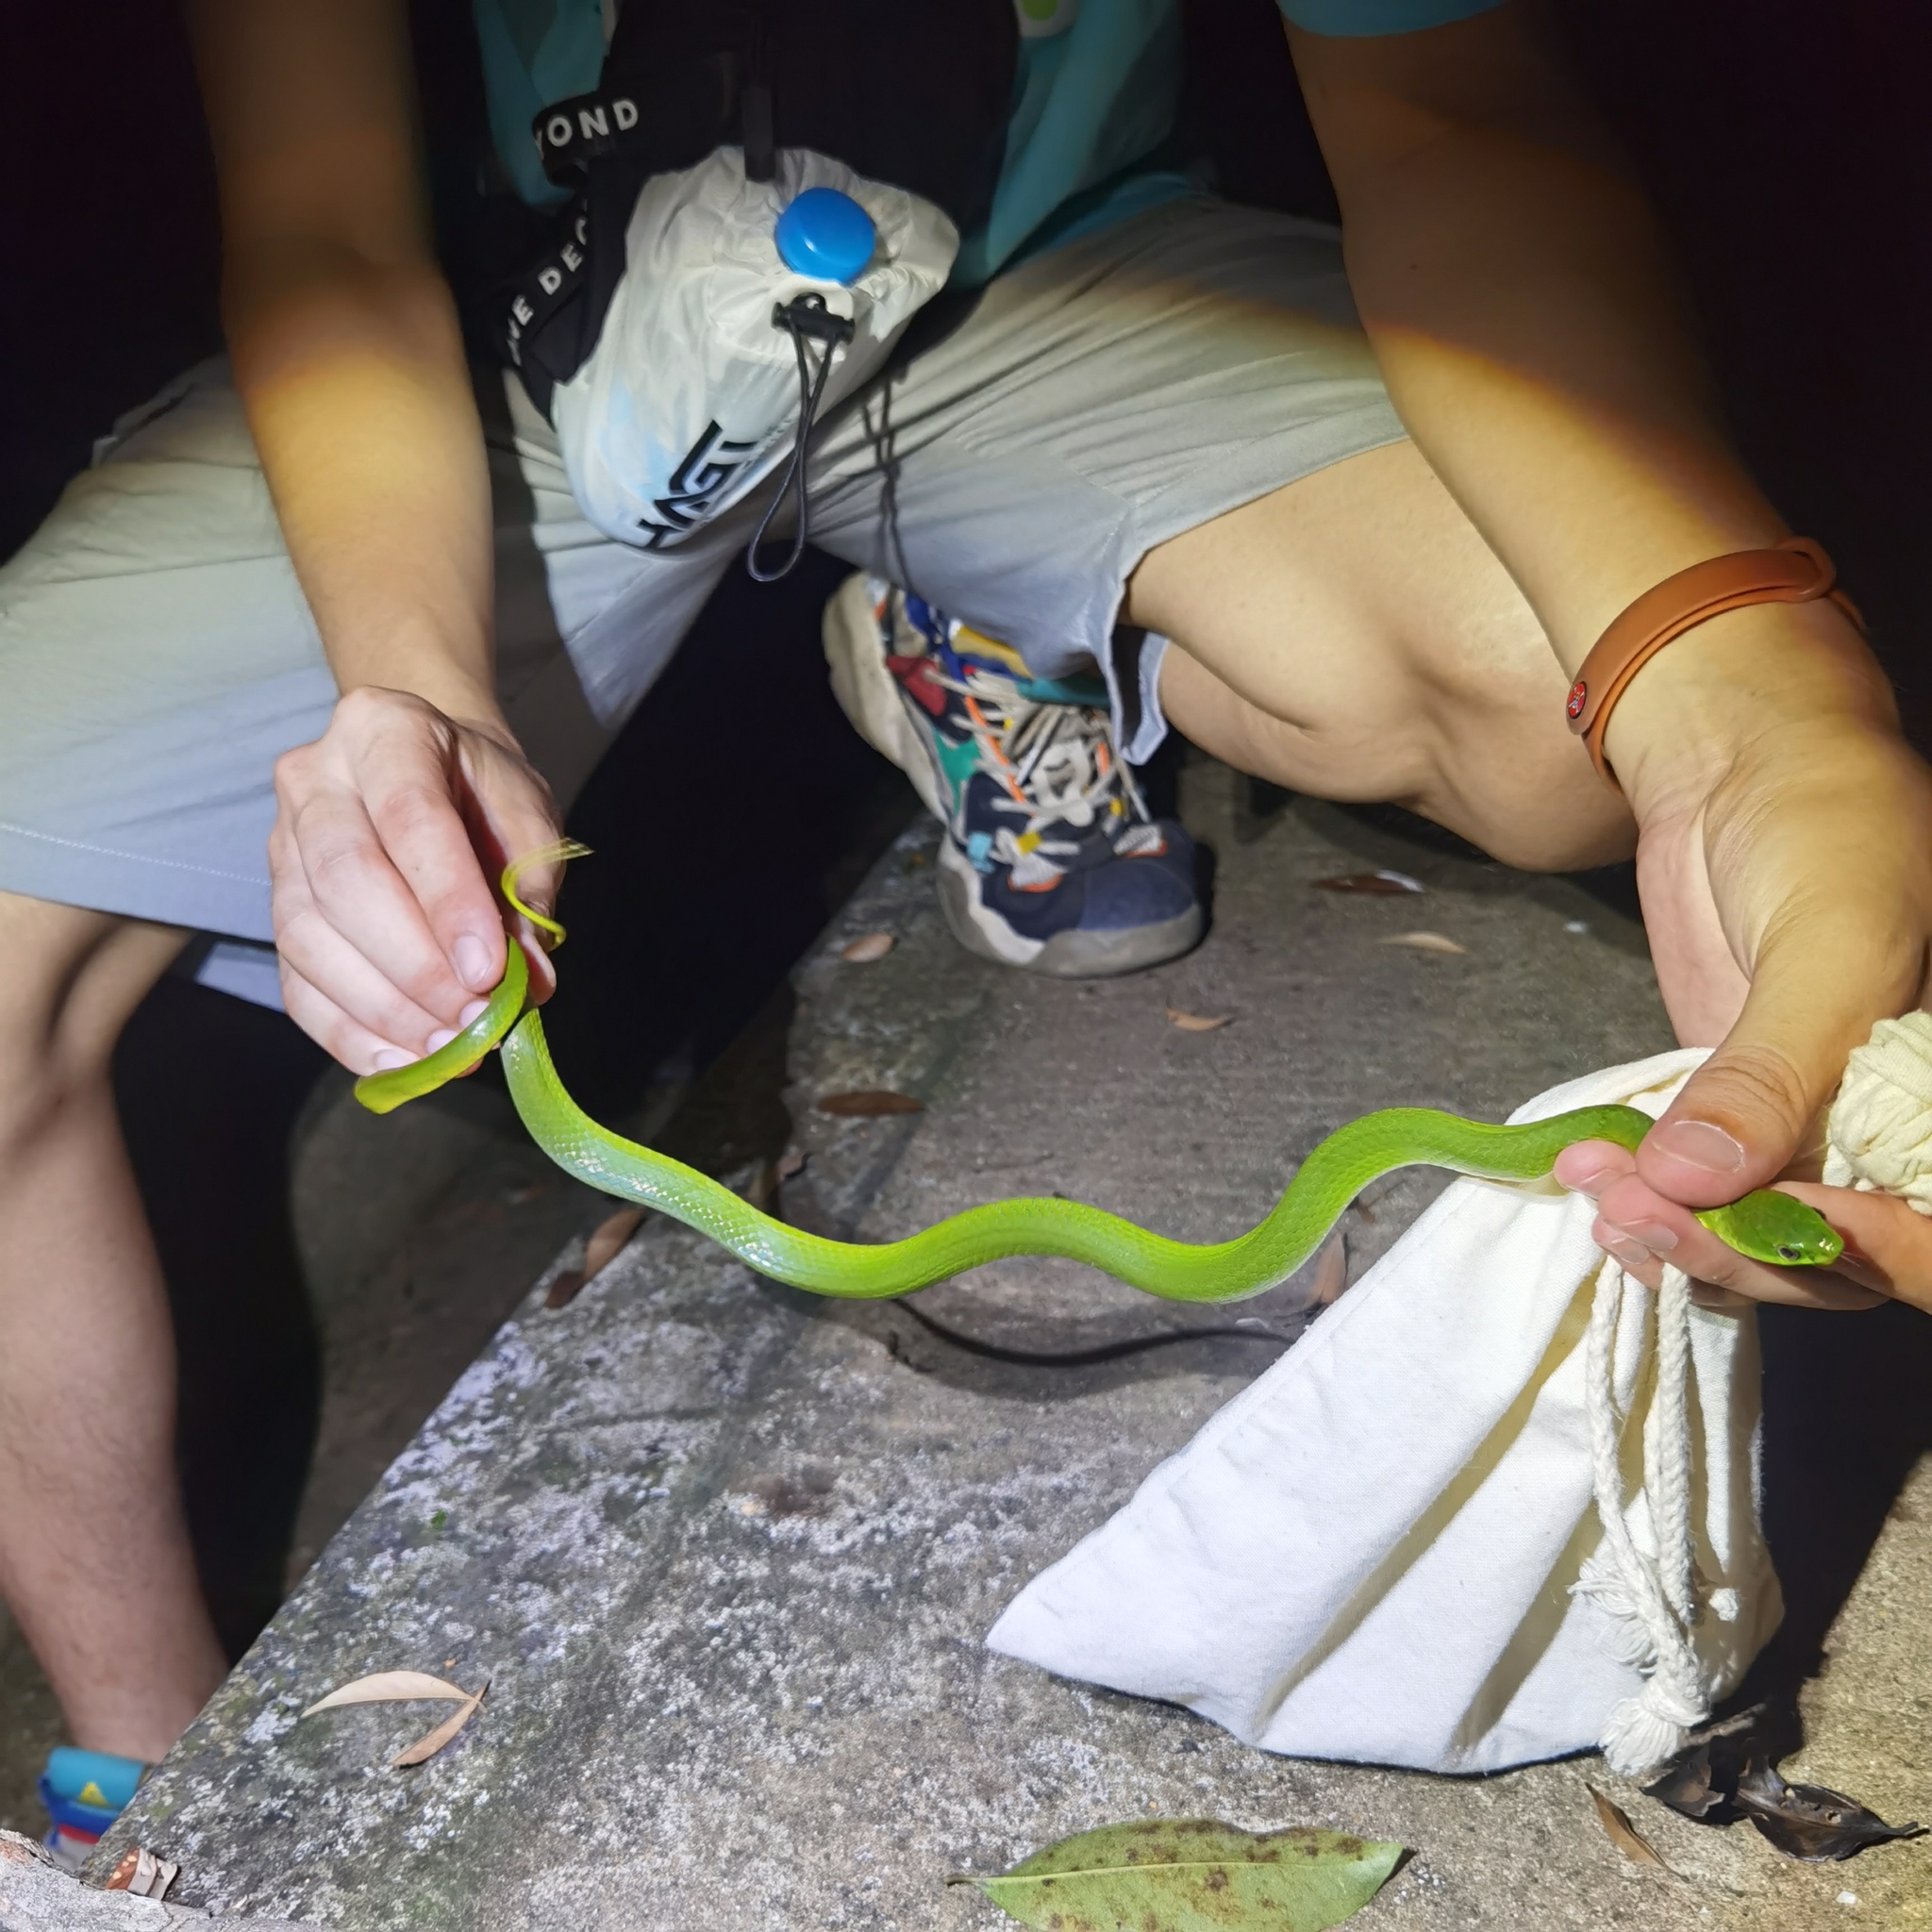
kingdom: Animalia
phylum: Chordata
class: Squamata
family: Colubridae
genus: Ptyas
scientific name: Ptyas major
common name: Chinese green snake
